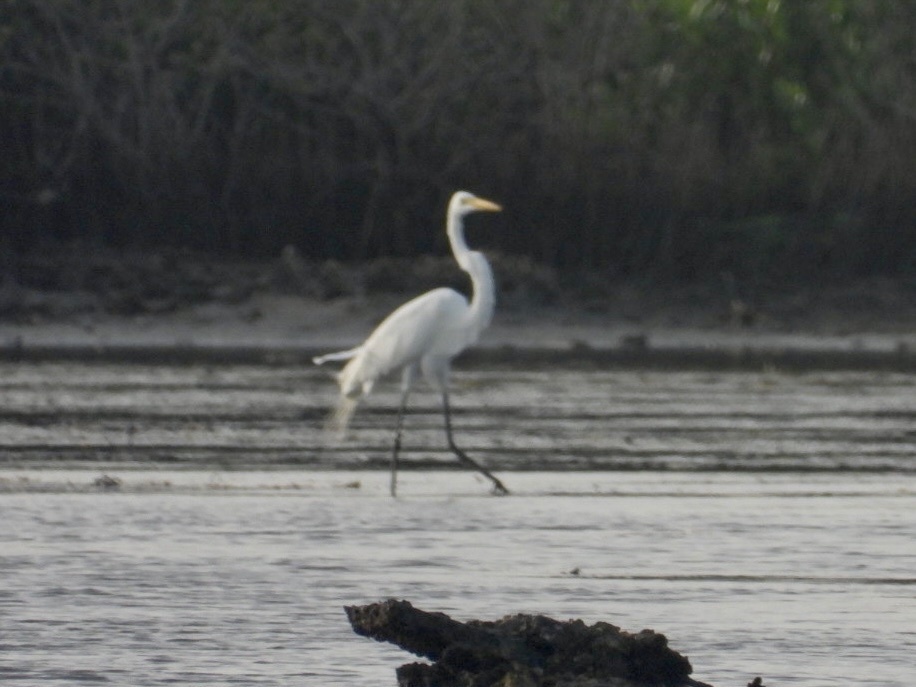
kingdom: Animalia
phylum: Chordata
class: Aves
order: Pelecaniformes
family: Ardeidae
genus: Ardea
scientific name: Ardea alba
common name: Great egret
